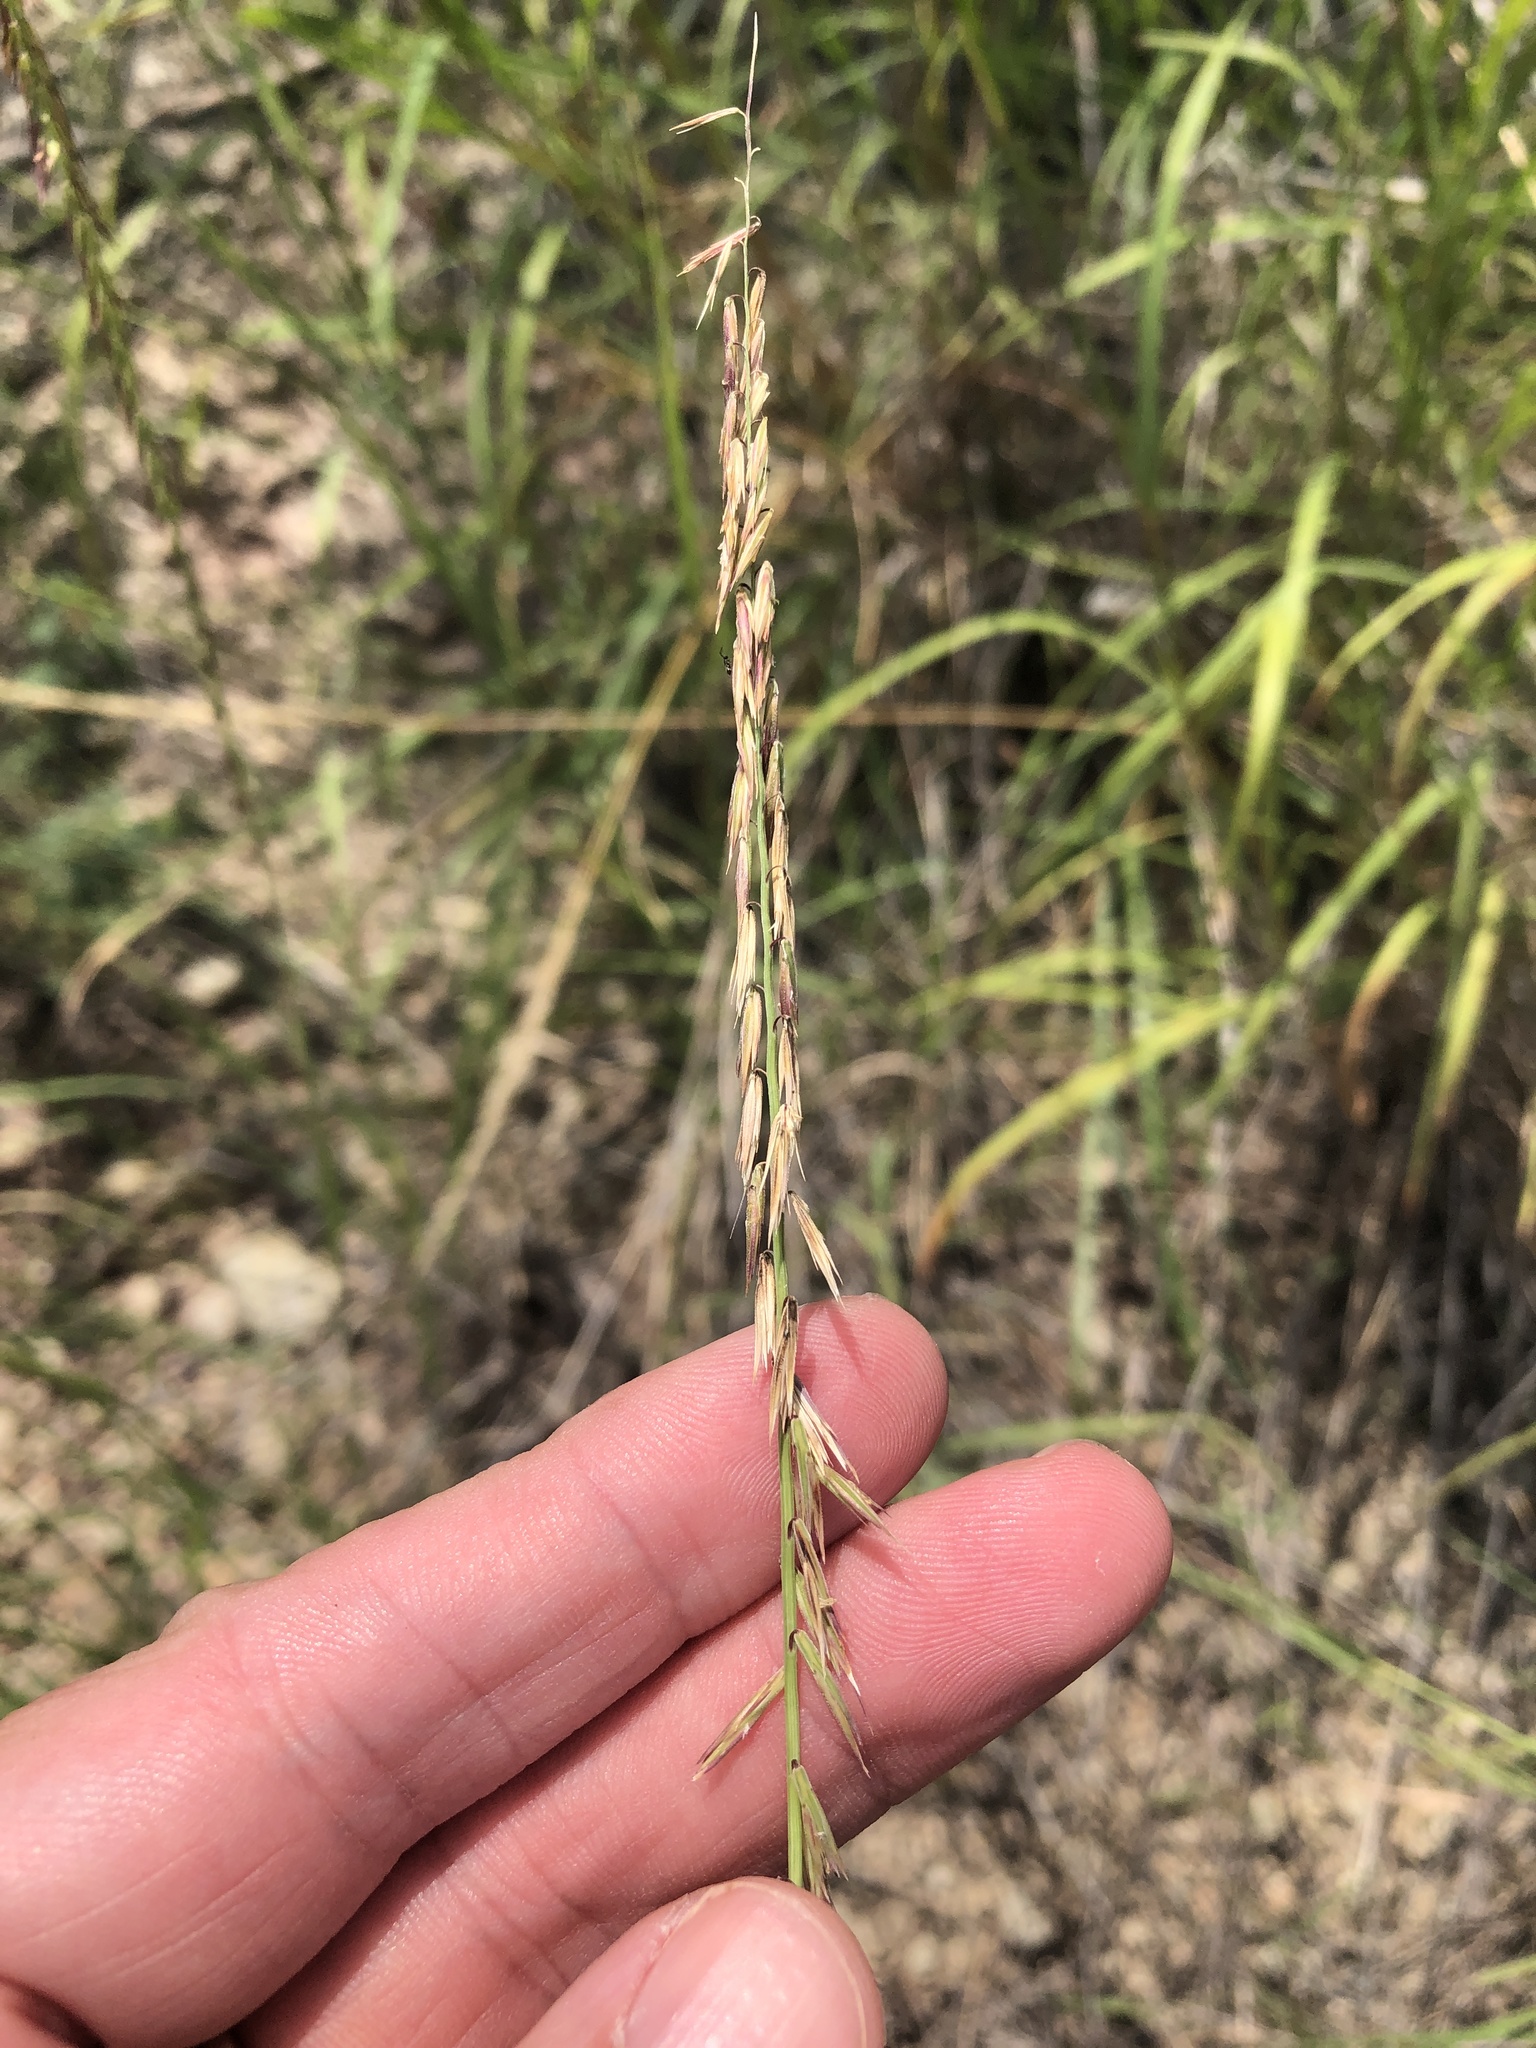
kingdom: Plantae
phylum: Tracheophyta
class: Liliopsida
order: Poales
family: Poaceae
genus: Bouteloua
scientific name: Bouteloua curtipendula
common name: Side-oats grama
